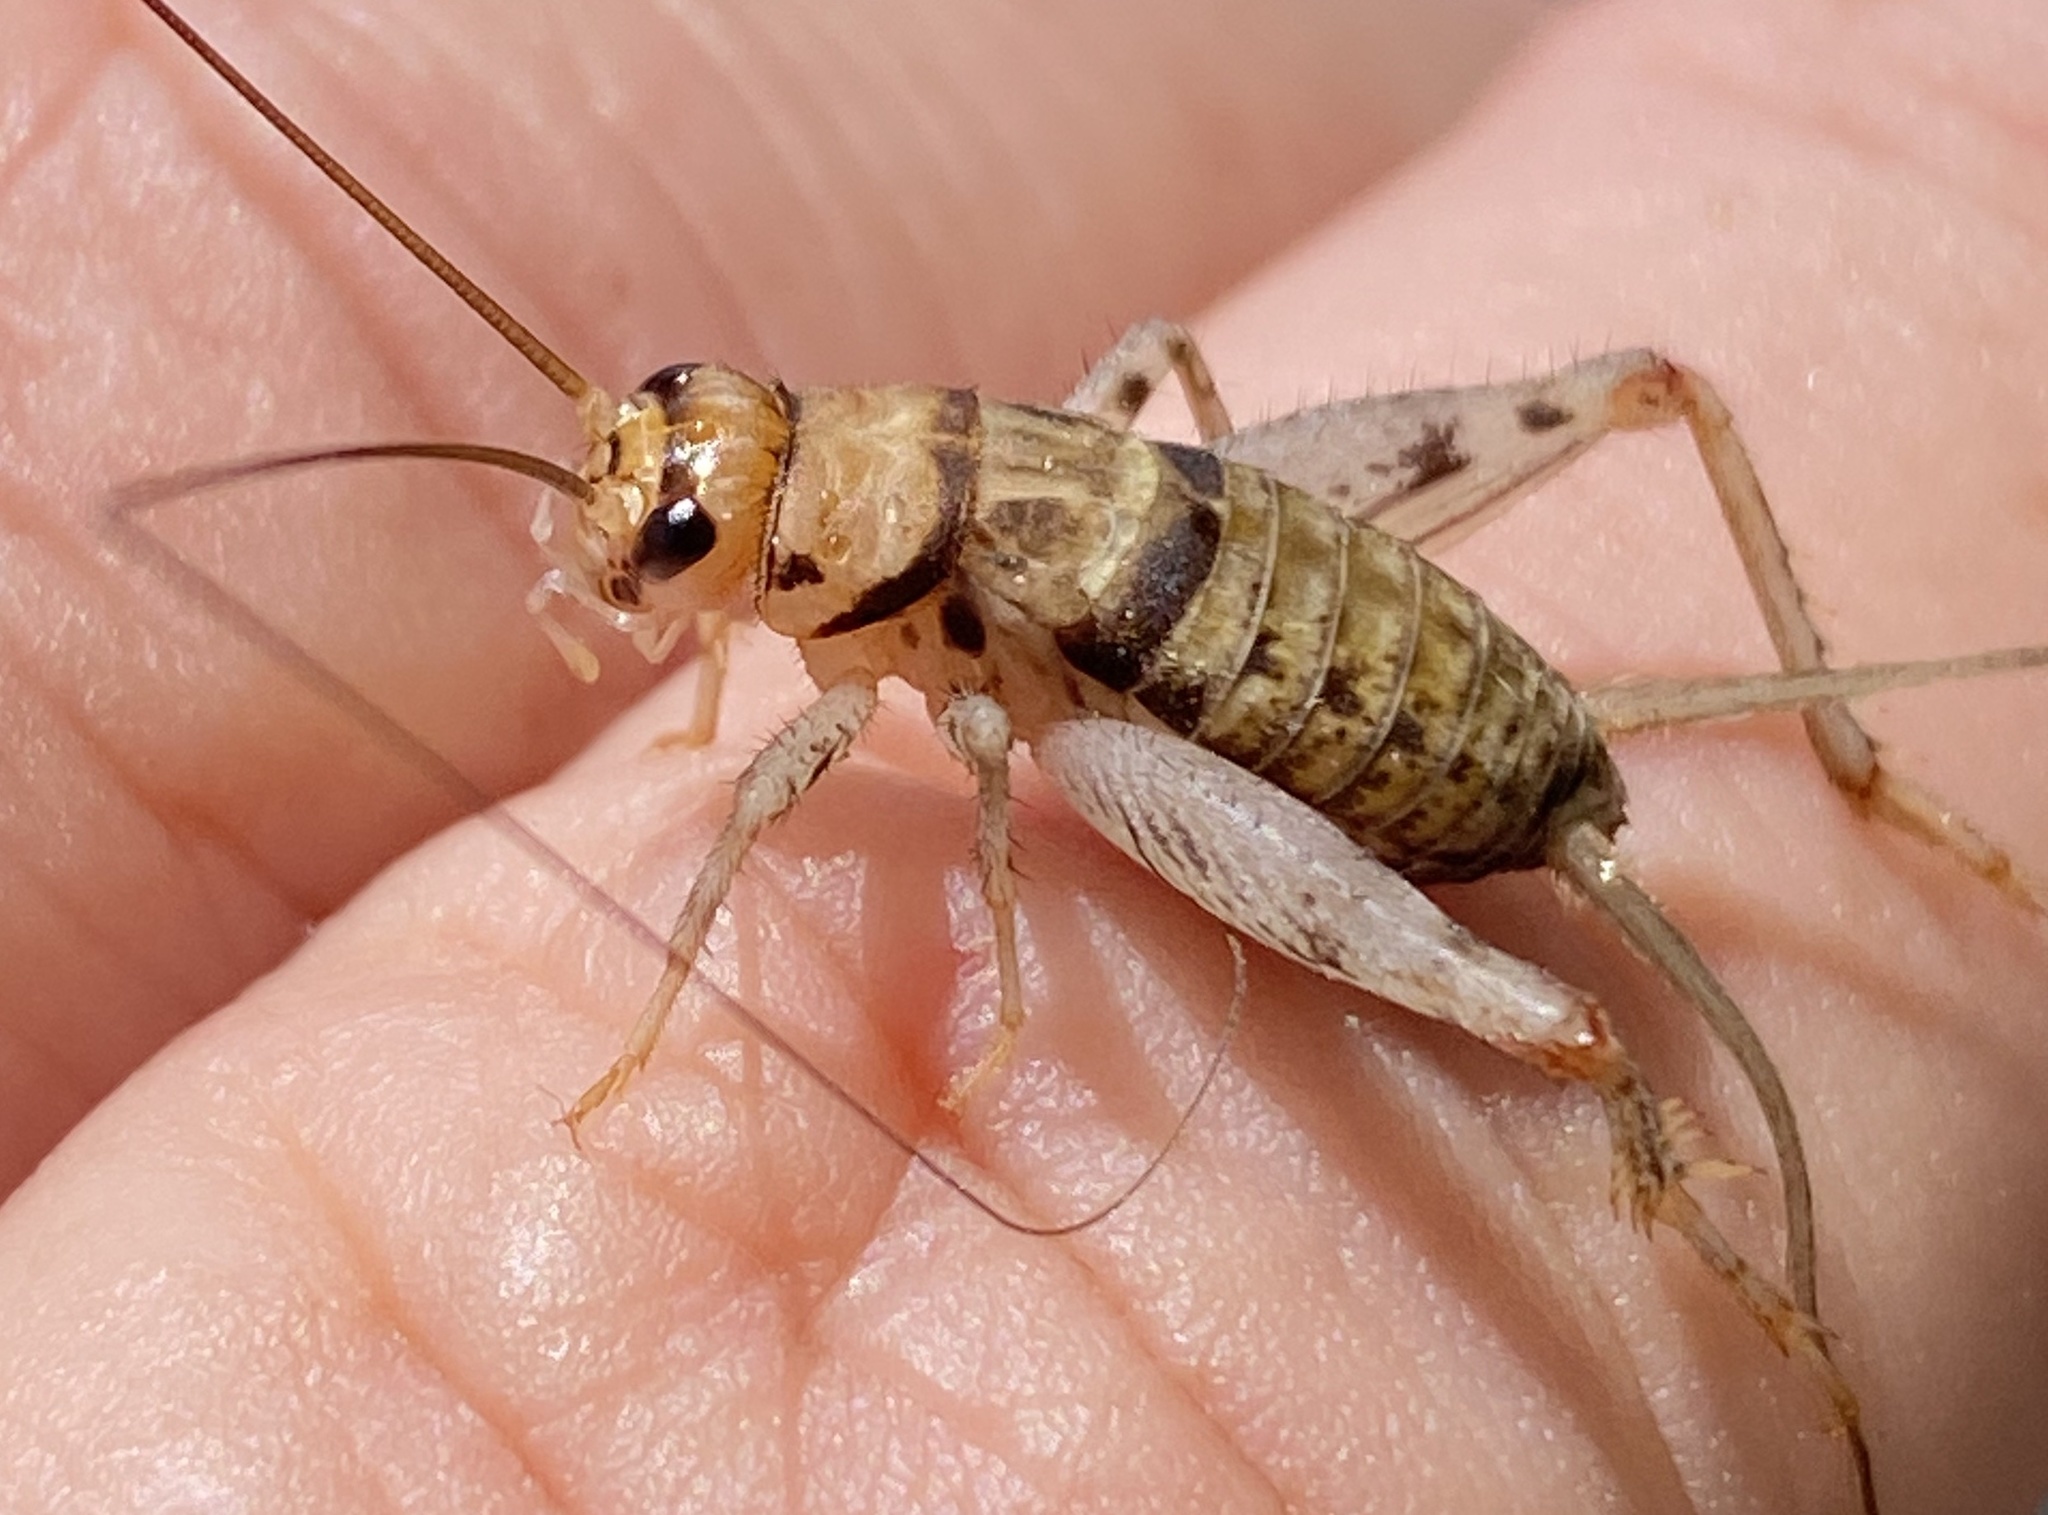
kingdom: Animalia
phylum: Arthropoda
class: Insecta
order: Orthoptera
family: Gryllidae
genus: Gryllodes
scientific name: Gryllodes sigillatus
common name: Tropical house cricket
